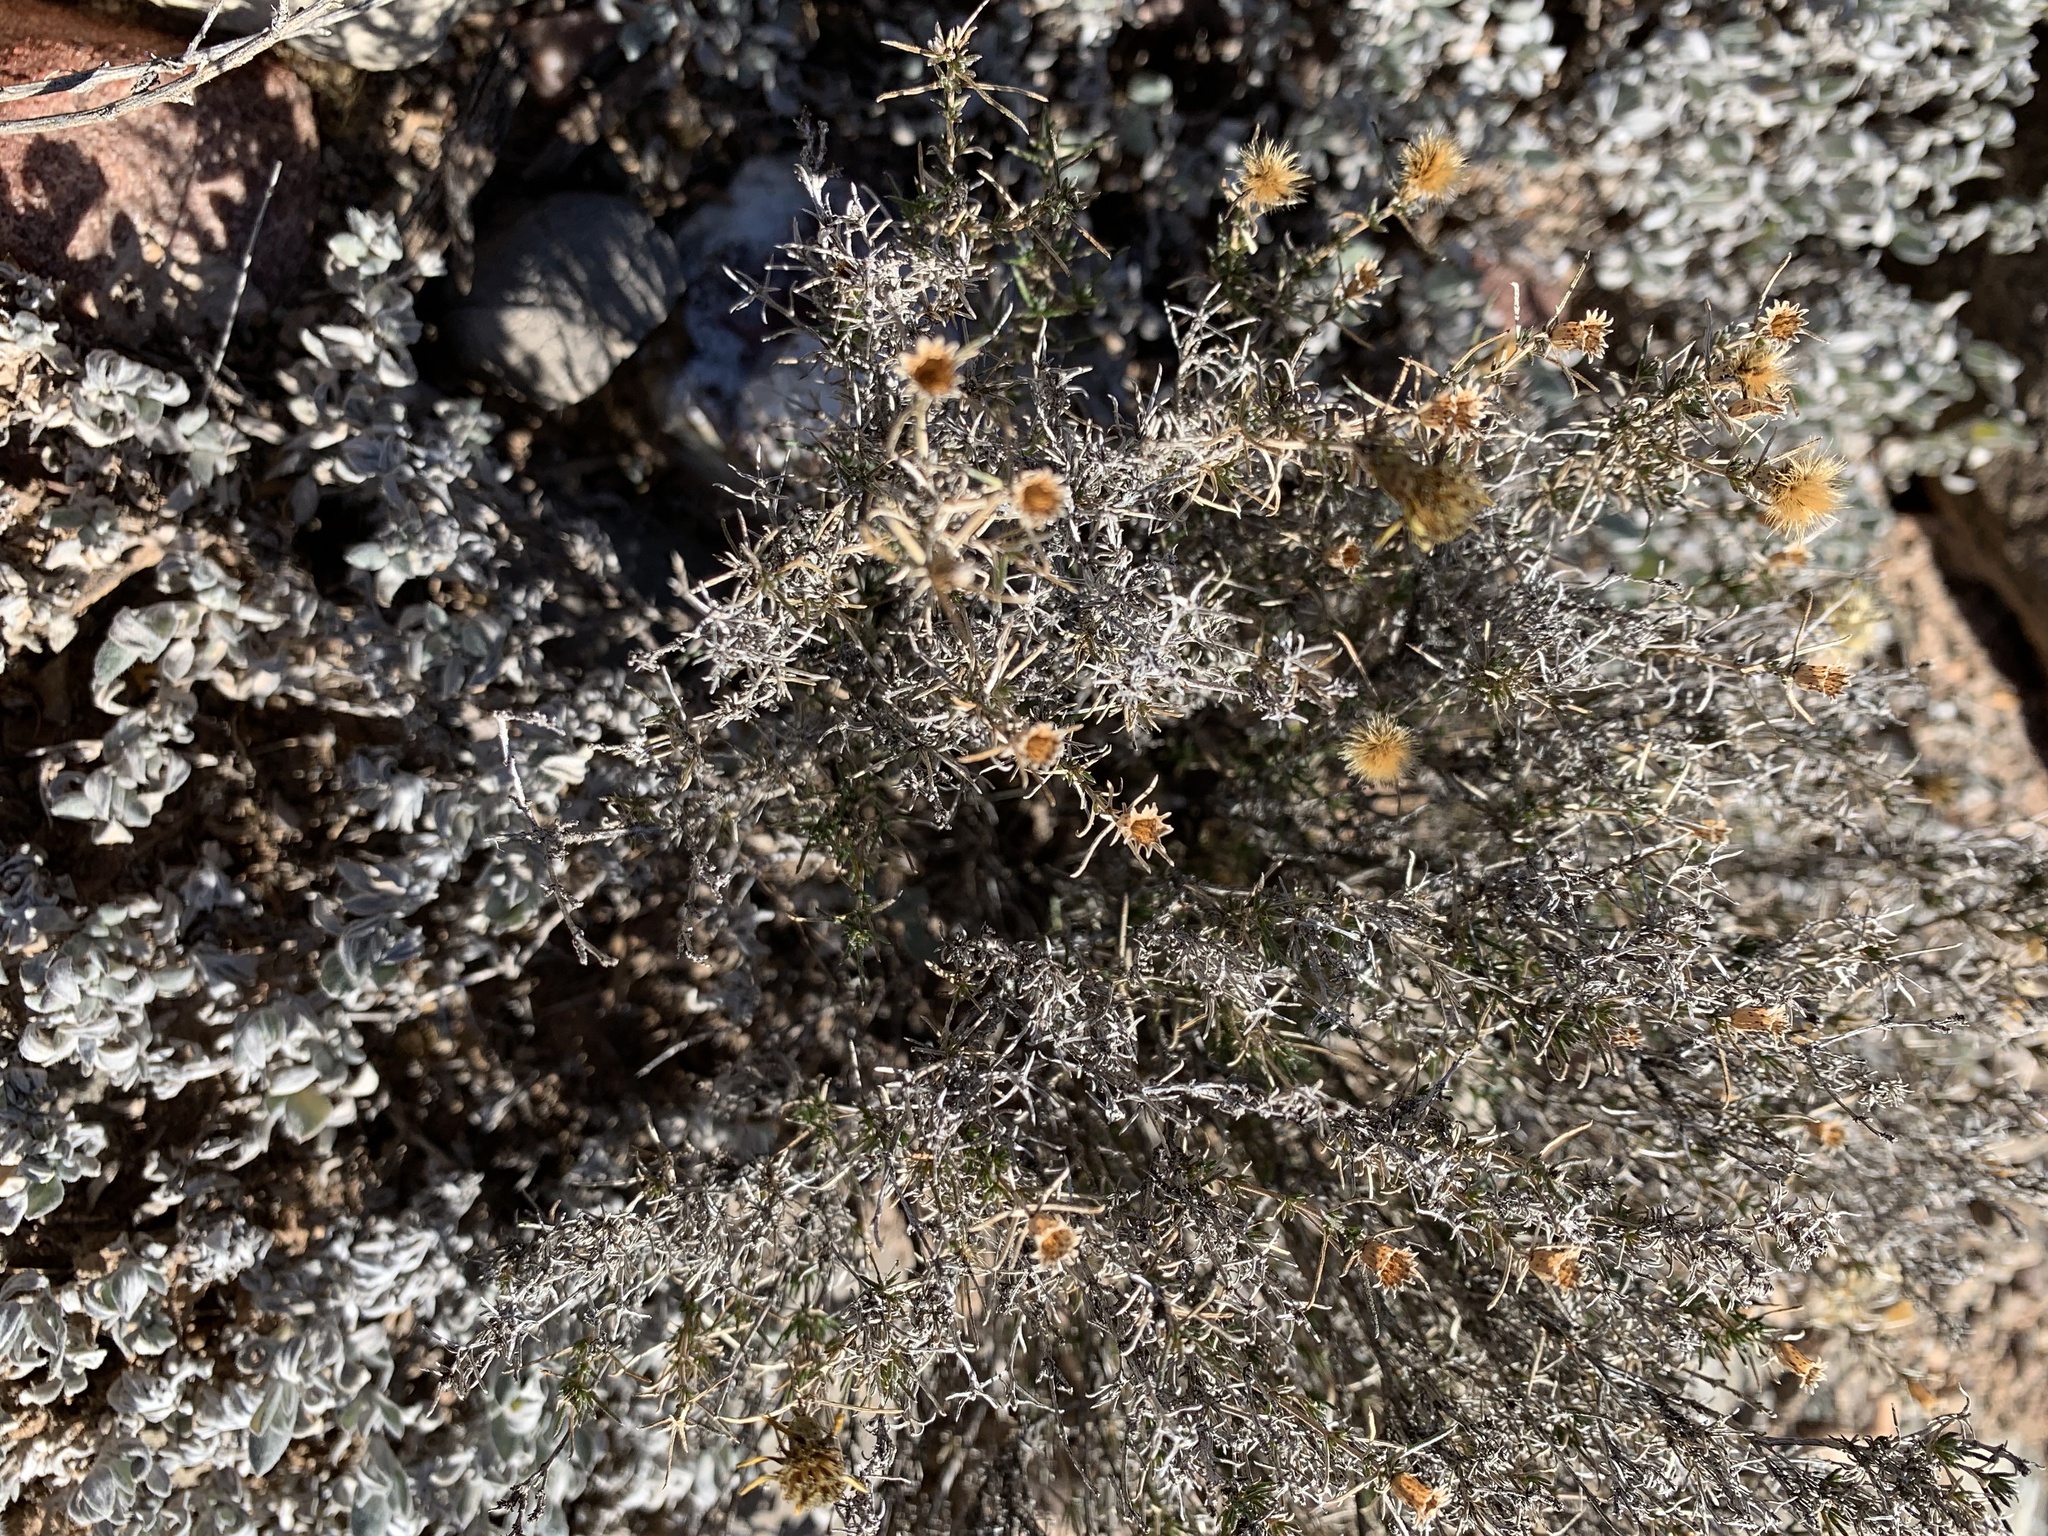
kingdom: Plantae
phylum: Tracheophyta
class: Magnoliopsida
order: Asterales
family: Asteraceae
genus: Thymophylla
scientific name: Thymophylla acerosa
